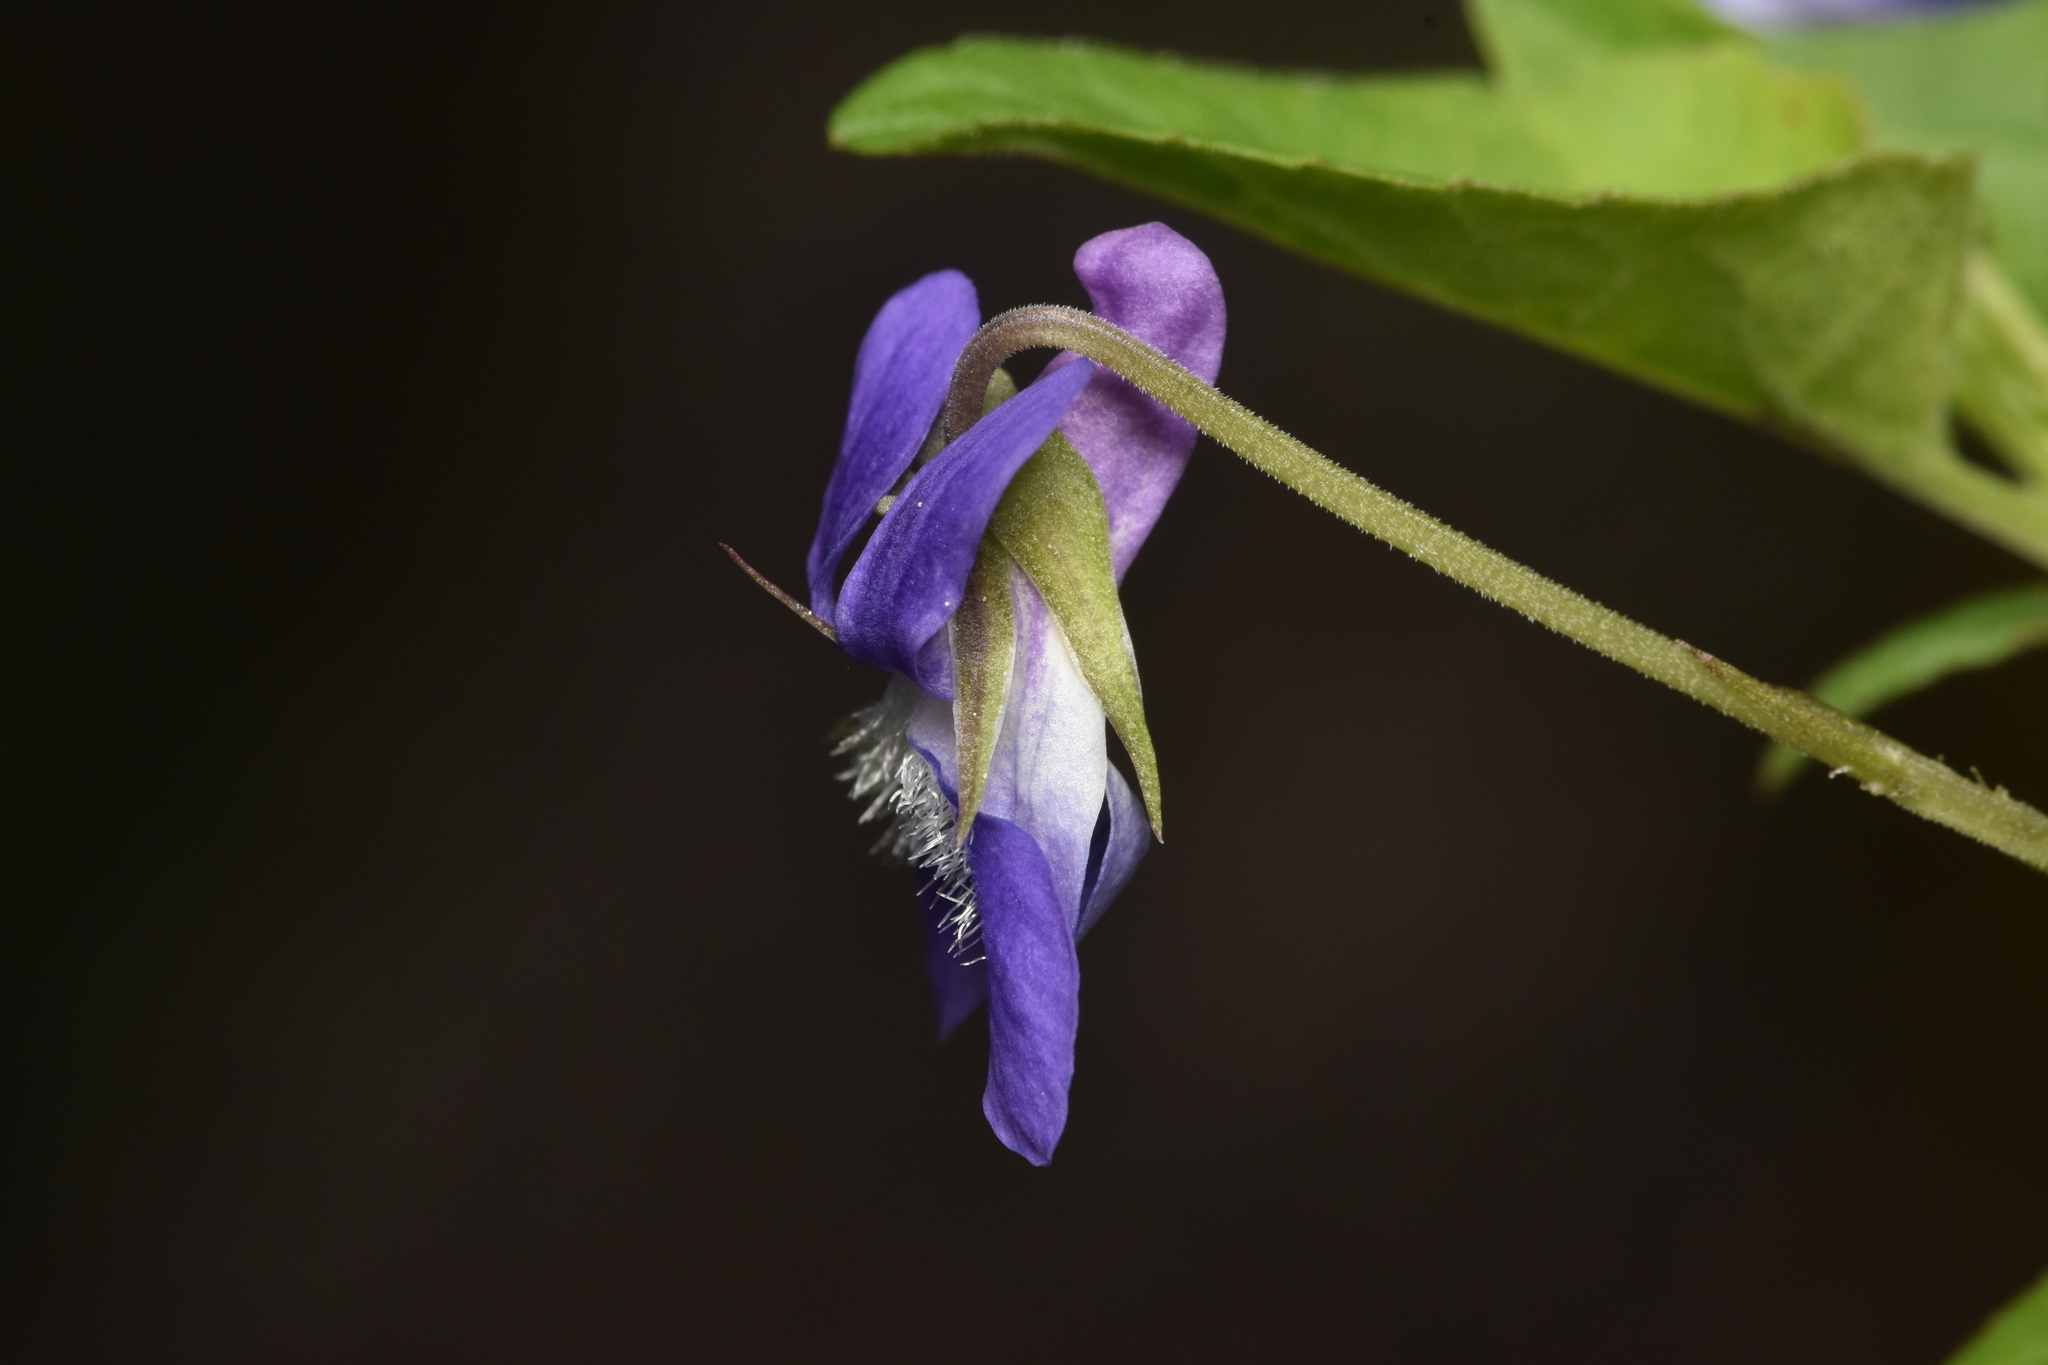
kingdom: Plantae
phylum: Tracheophyta
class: Magnoliopsida
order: Malpighiales
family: Violaceae
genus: Viola
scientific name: Viola adunca
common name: Sand violet
